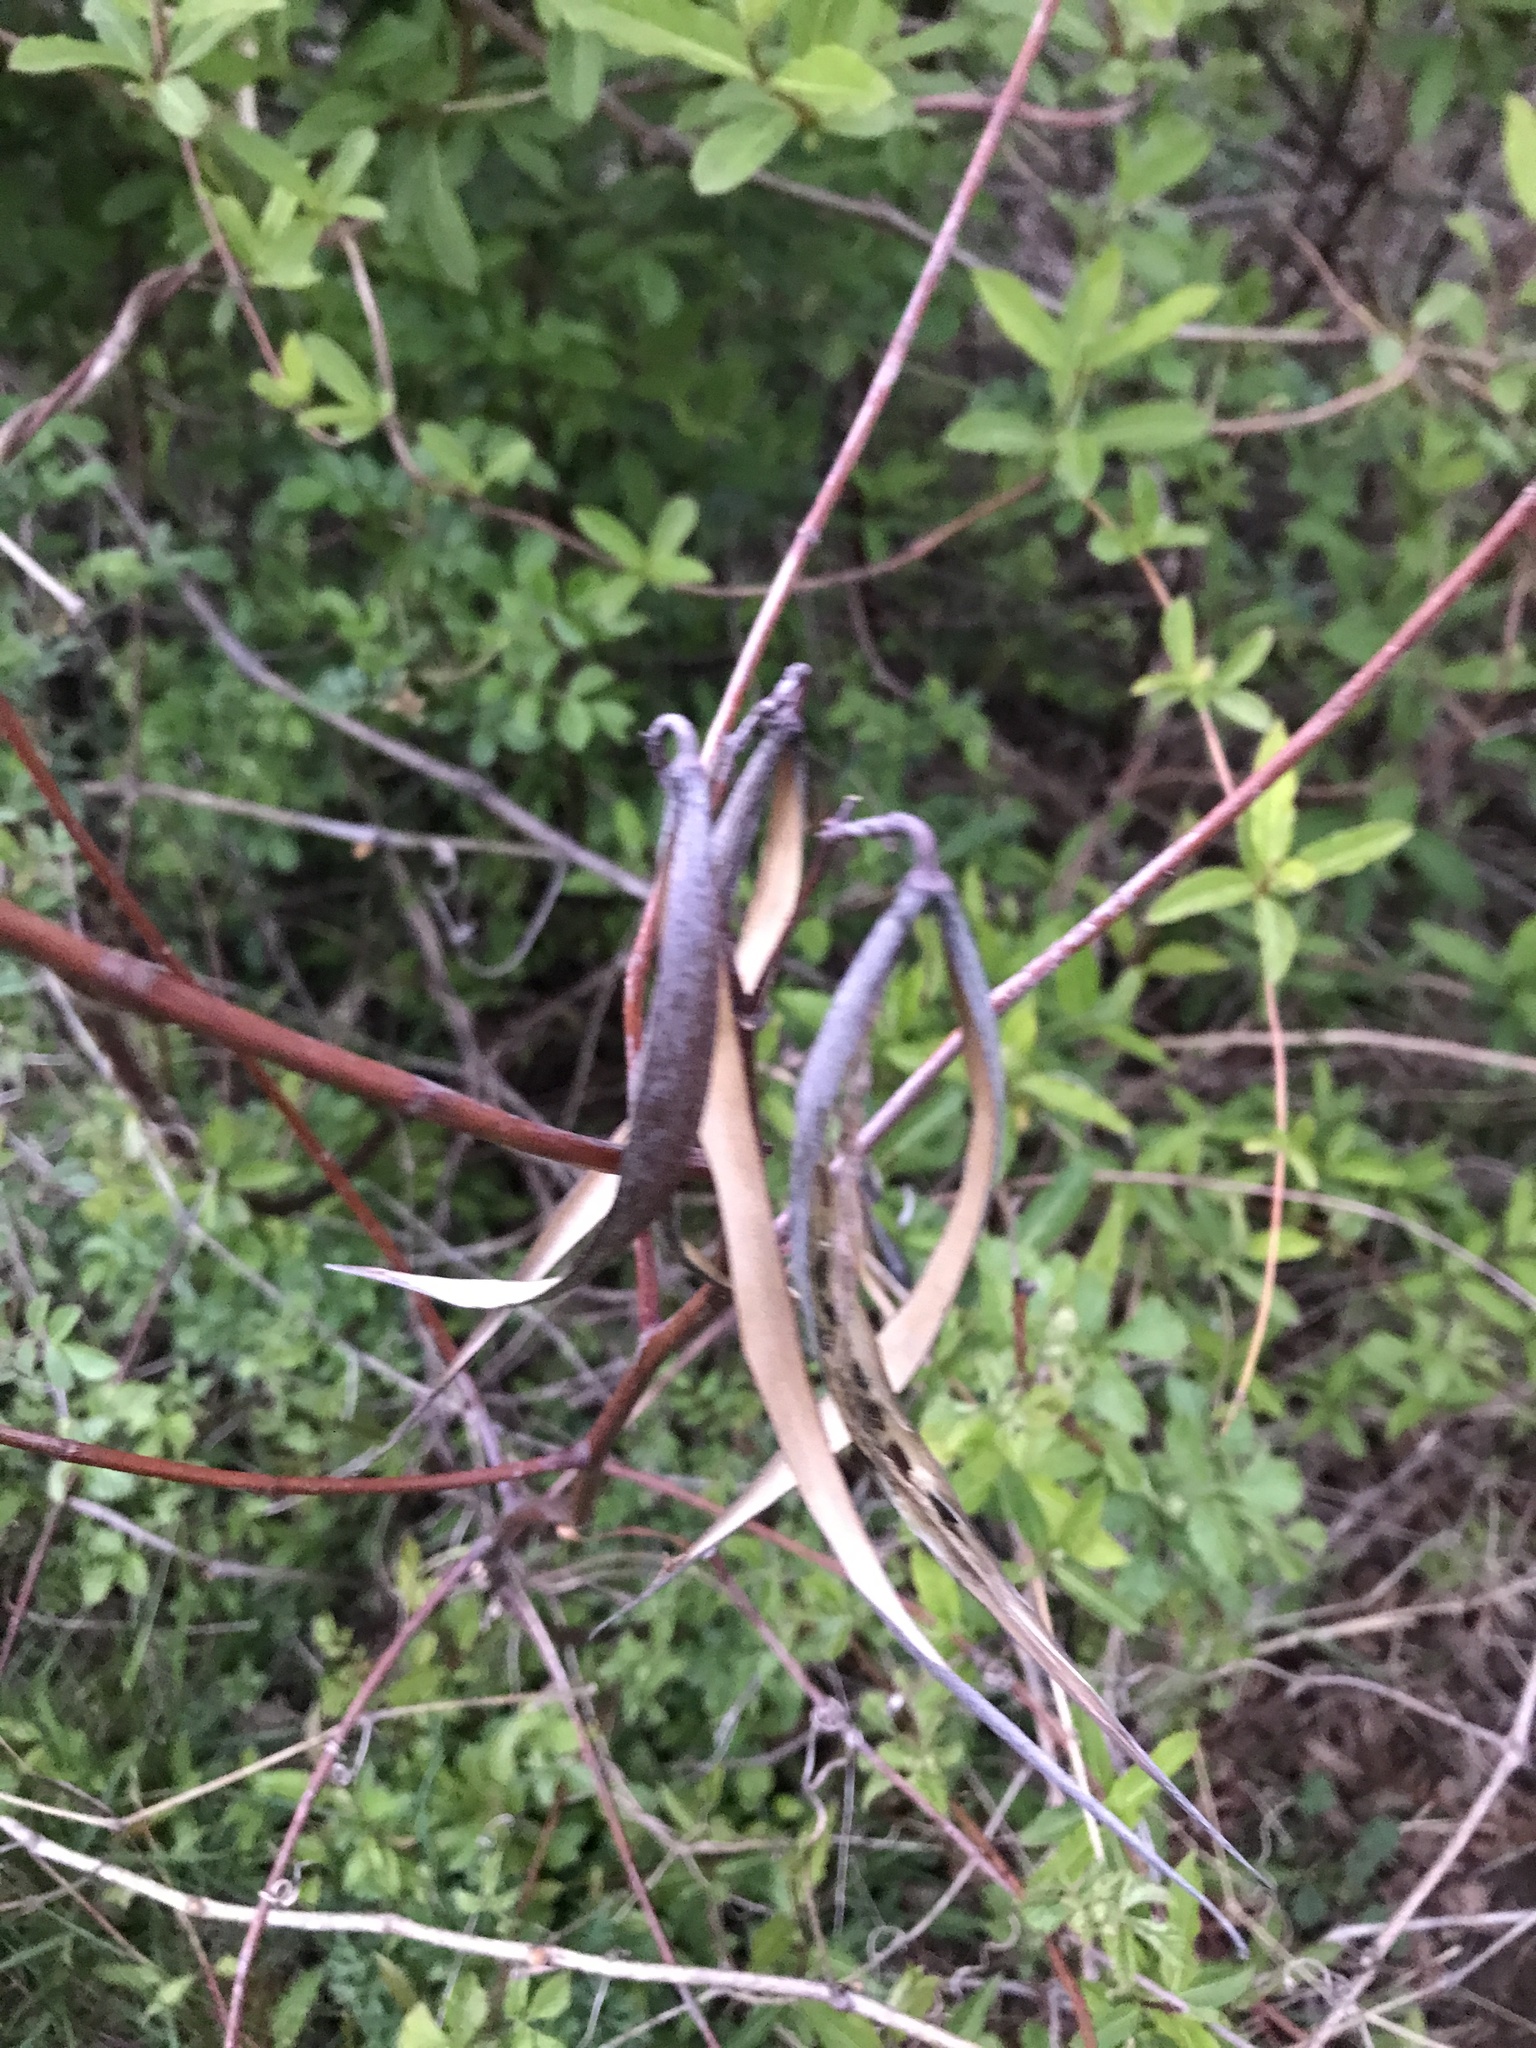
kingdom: Plantae
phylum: Tracheophyta
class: Magnoliopsida
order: Gentianales
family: Apocynaceae
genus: Apocynum
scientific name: Apocynum cannabinum
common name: Hemp dogbane
